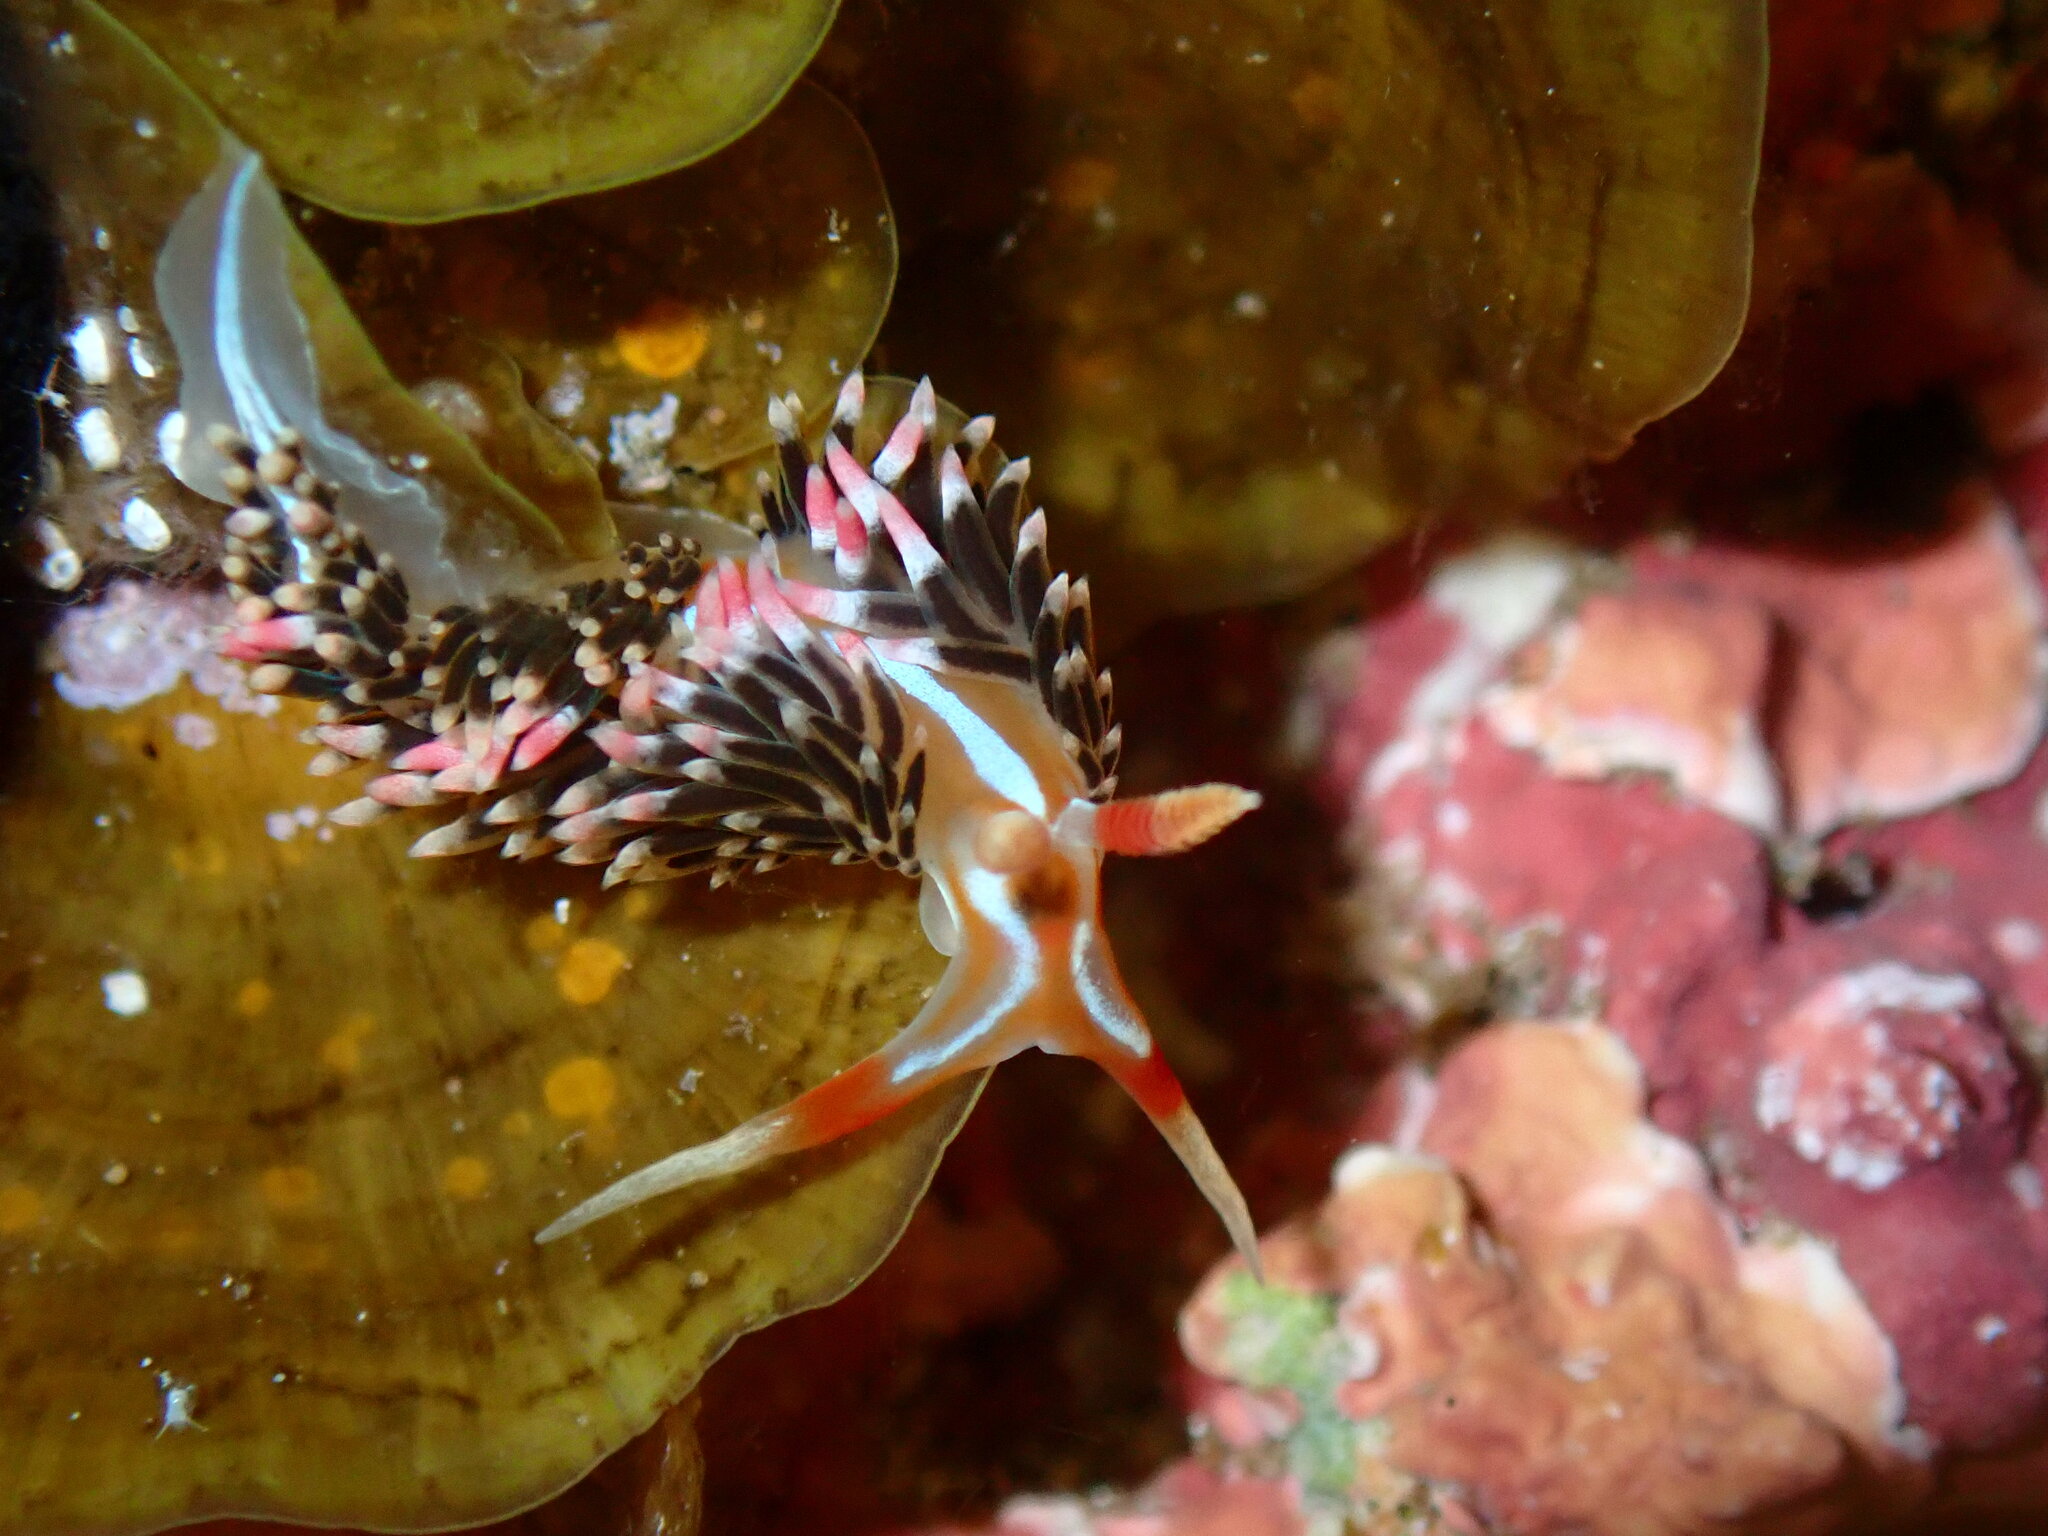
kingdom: Animalia
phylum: Mollusca
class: Gastropoda
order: Nudibranchia
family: Facelinidae
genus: Phidiana
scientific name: Phidiana lynceus
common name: Lynx nudibranch
